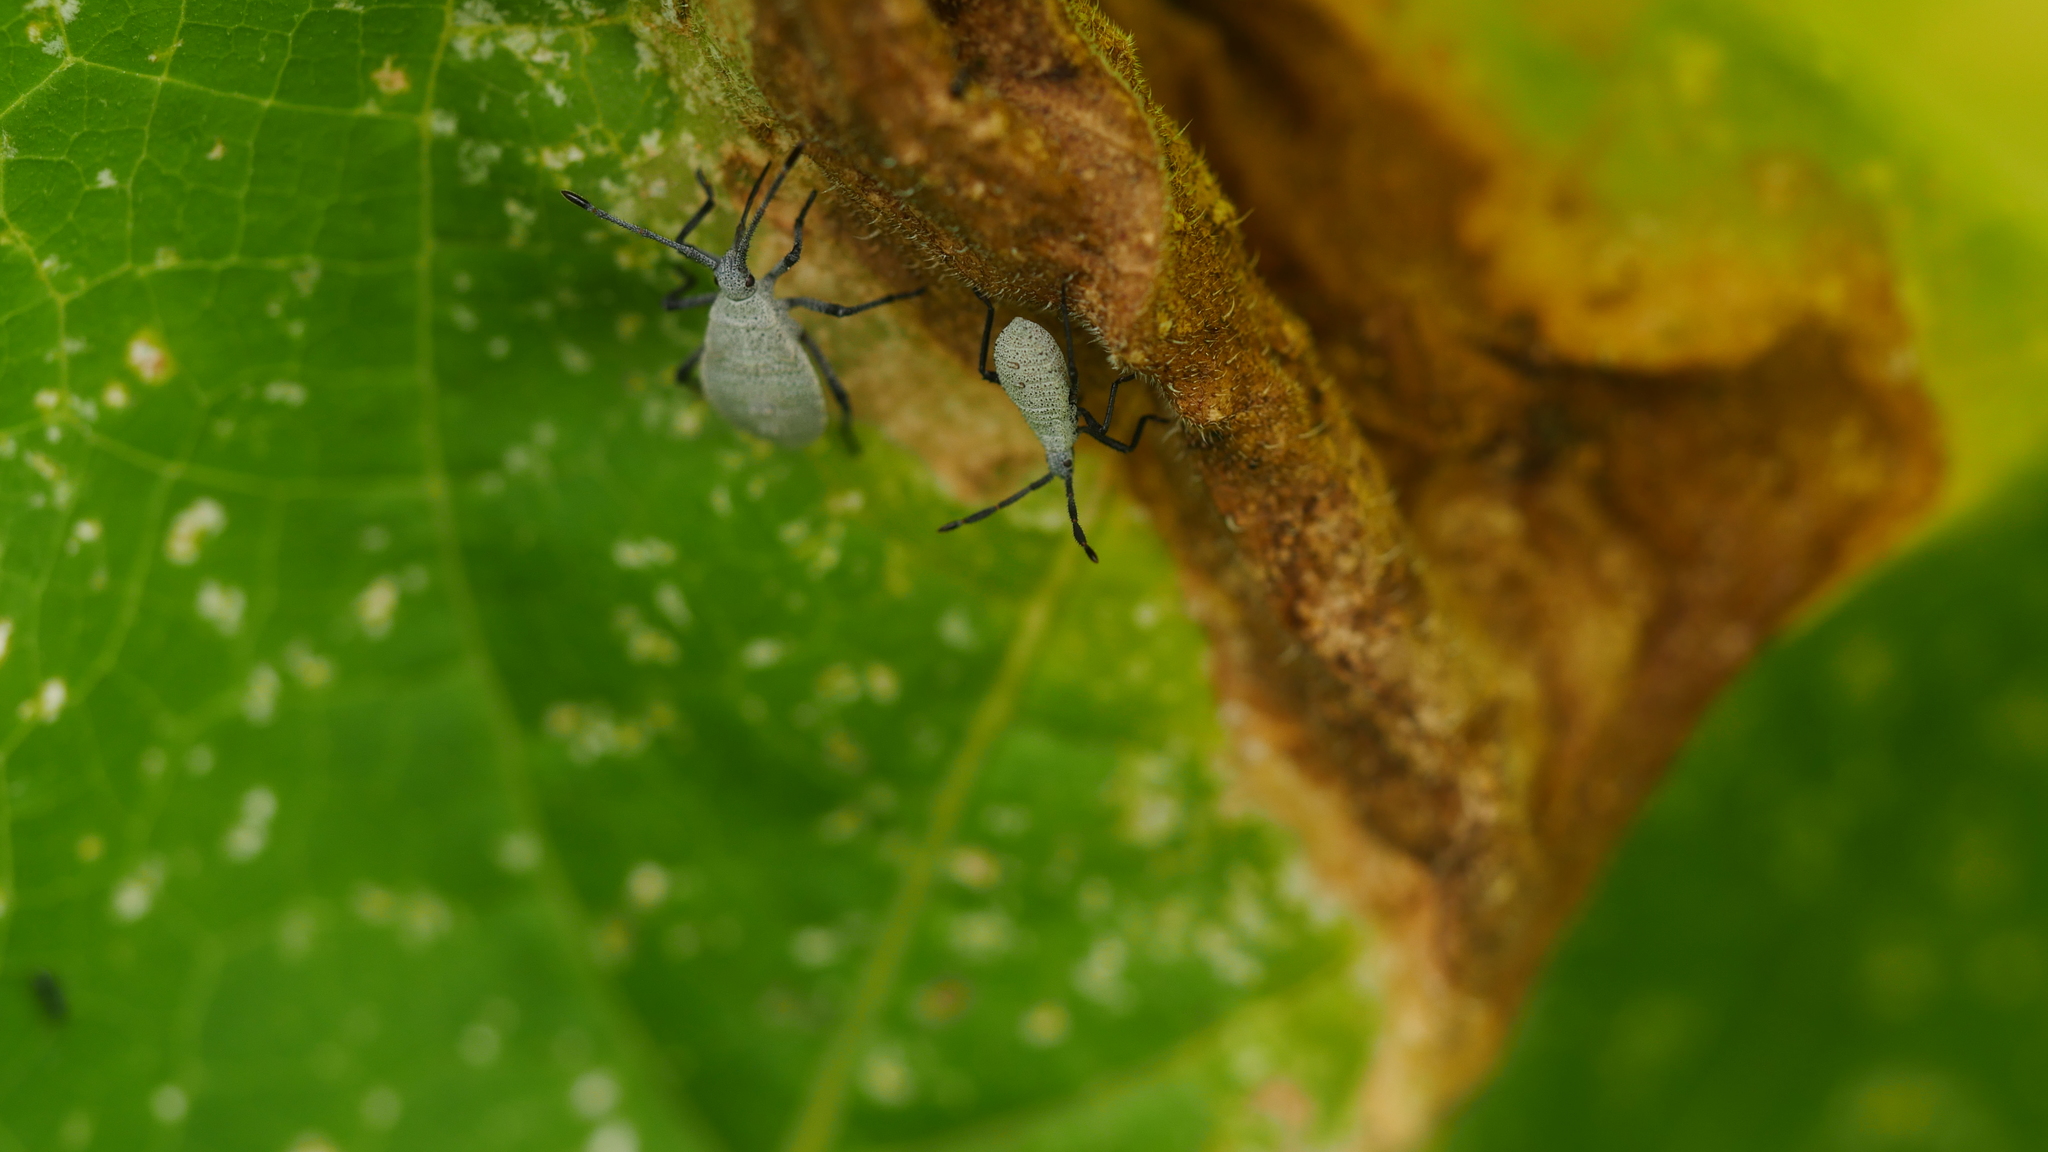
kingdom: Animalia
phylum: Arthropoda
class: Insecta
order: Hemiptera
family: Coreidae
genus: Anasa
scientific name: Anasa tristis
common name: Squash bug
